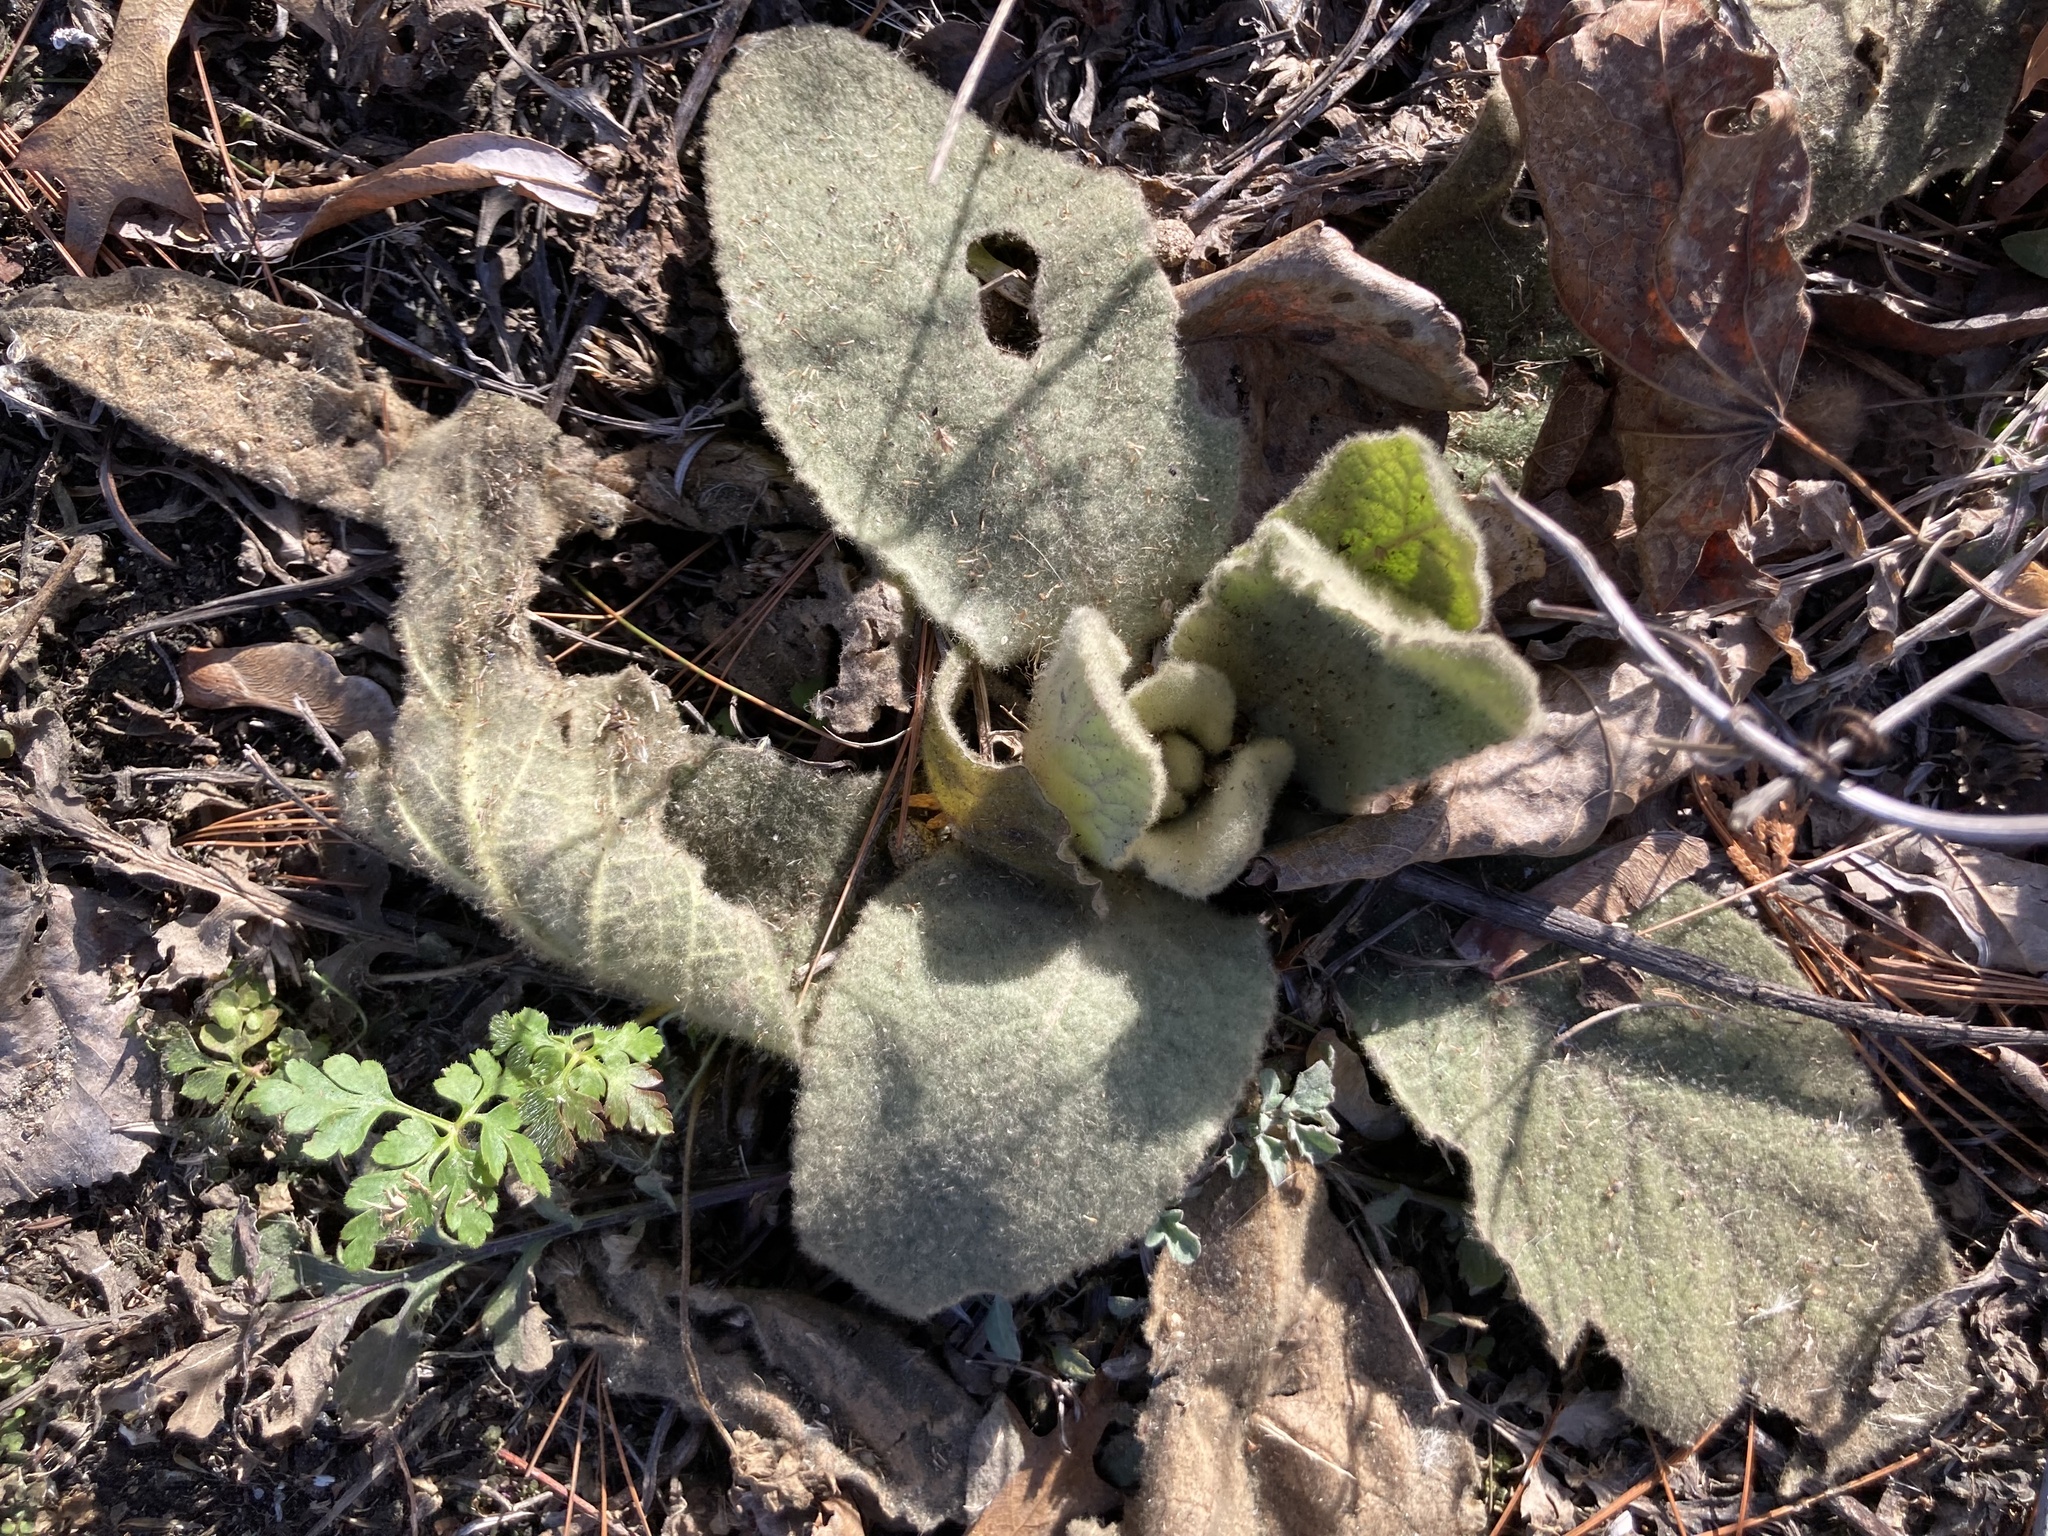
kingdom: Plantae
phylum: Tracheophyta
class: Magnoliopsida
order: Lamiales
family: Scrophulariaceae
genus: Verbascum
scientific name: Verbascum thapsus
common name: Common mullein
